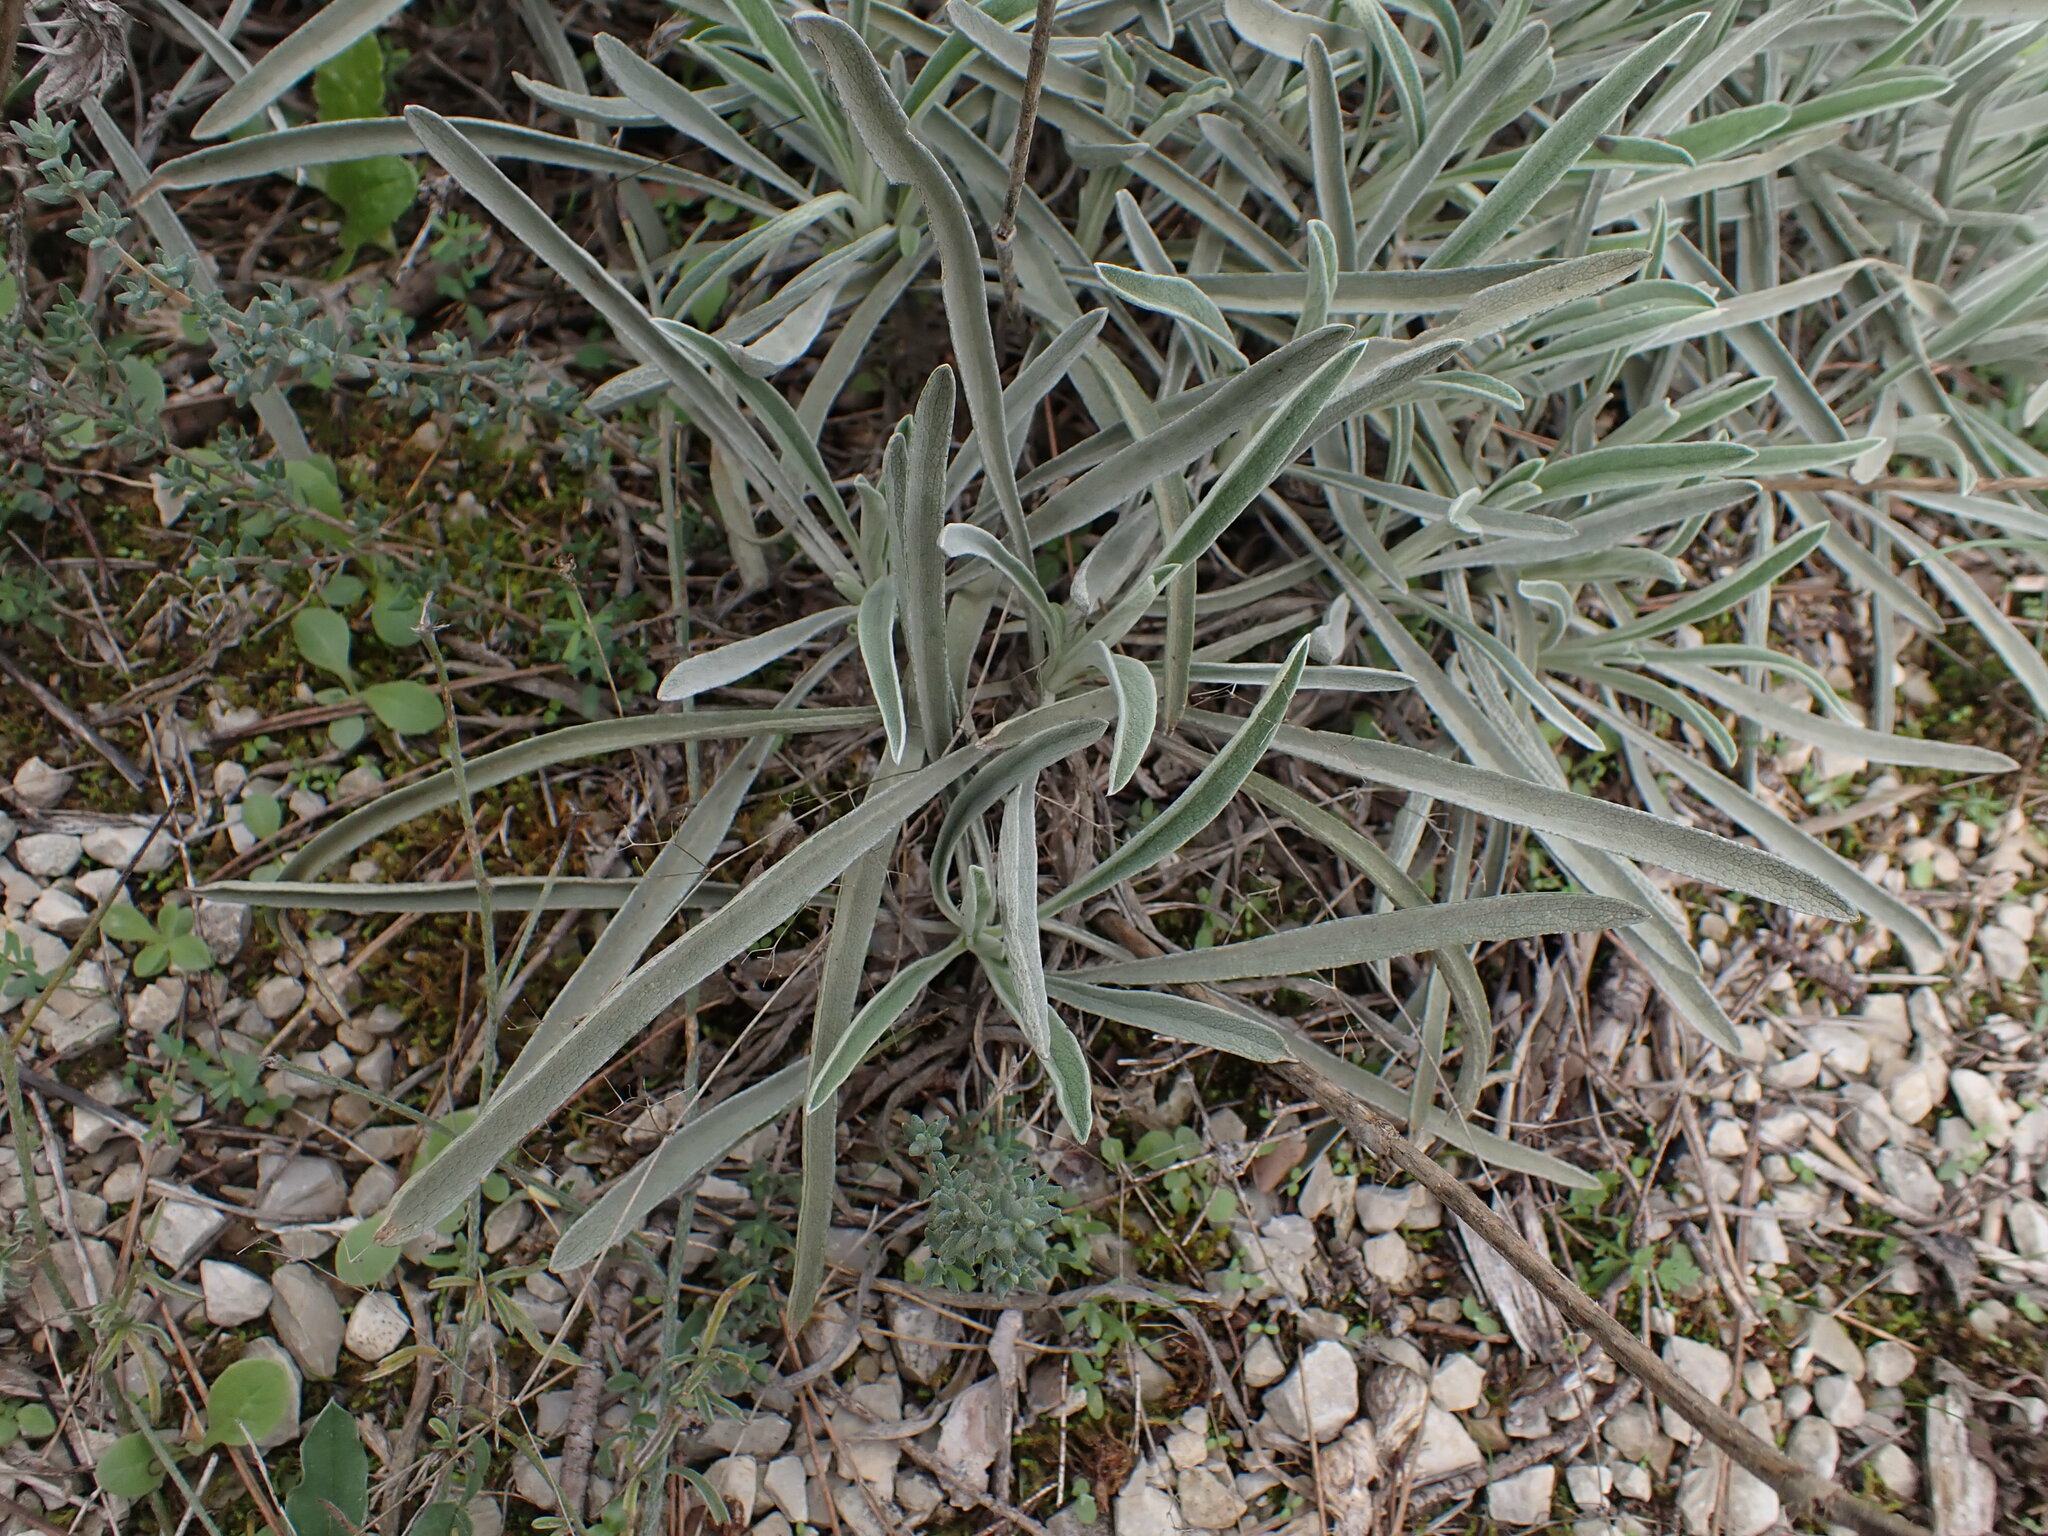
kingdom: Plantae
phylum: Tracheophyta
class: Magnoliopsida
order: Lamiales
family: Lamiaceae
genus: Phlomis
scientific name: Phlomis lychnitis
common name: Lampwickplant
